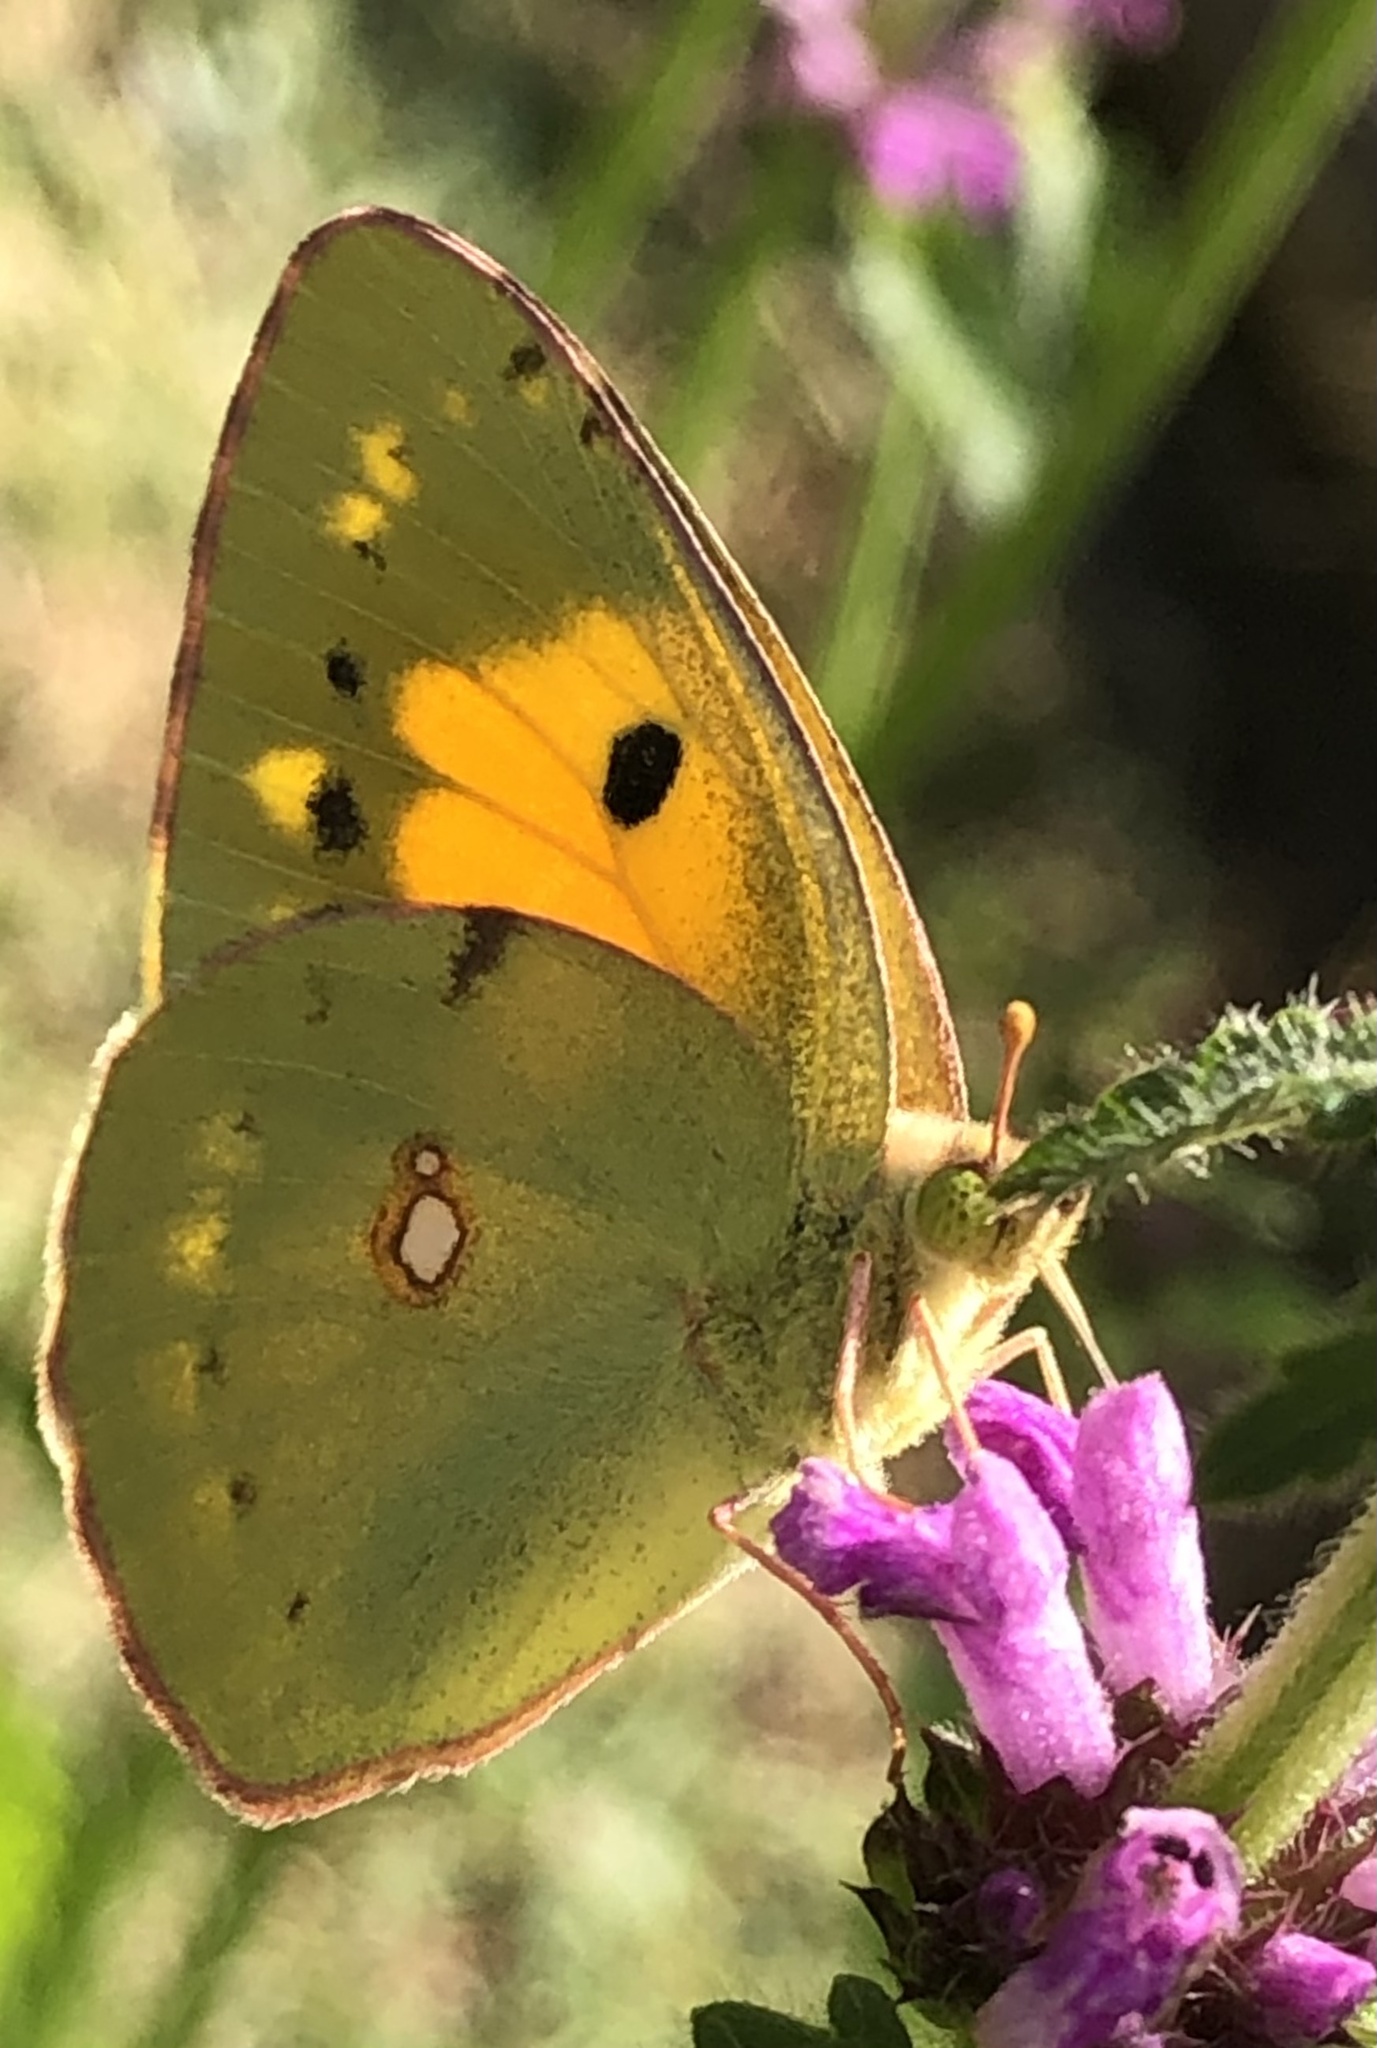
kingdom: Animalia
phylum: Arthropoda
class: Insecta
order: Lepidoptera
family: Pieridae
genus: Colias
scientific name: Colias croceus
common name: Clouded yellow
